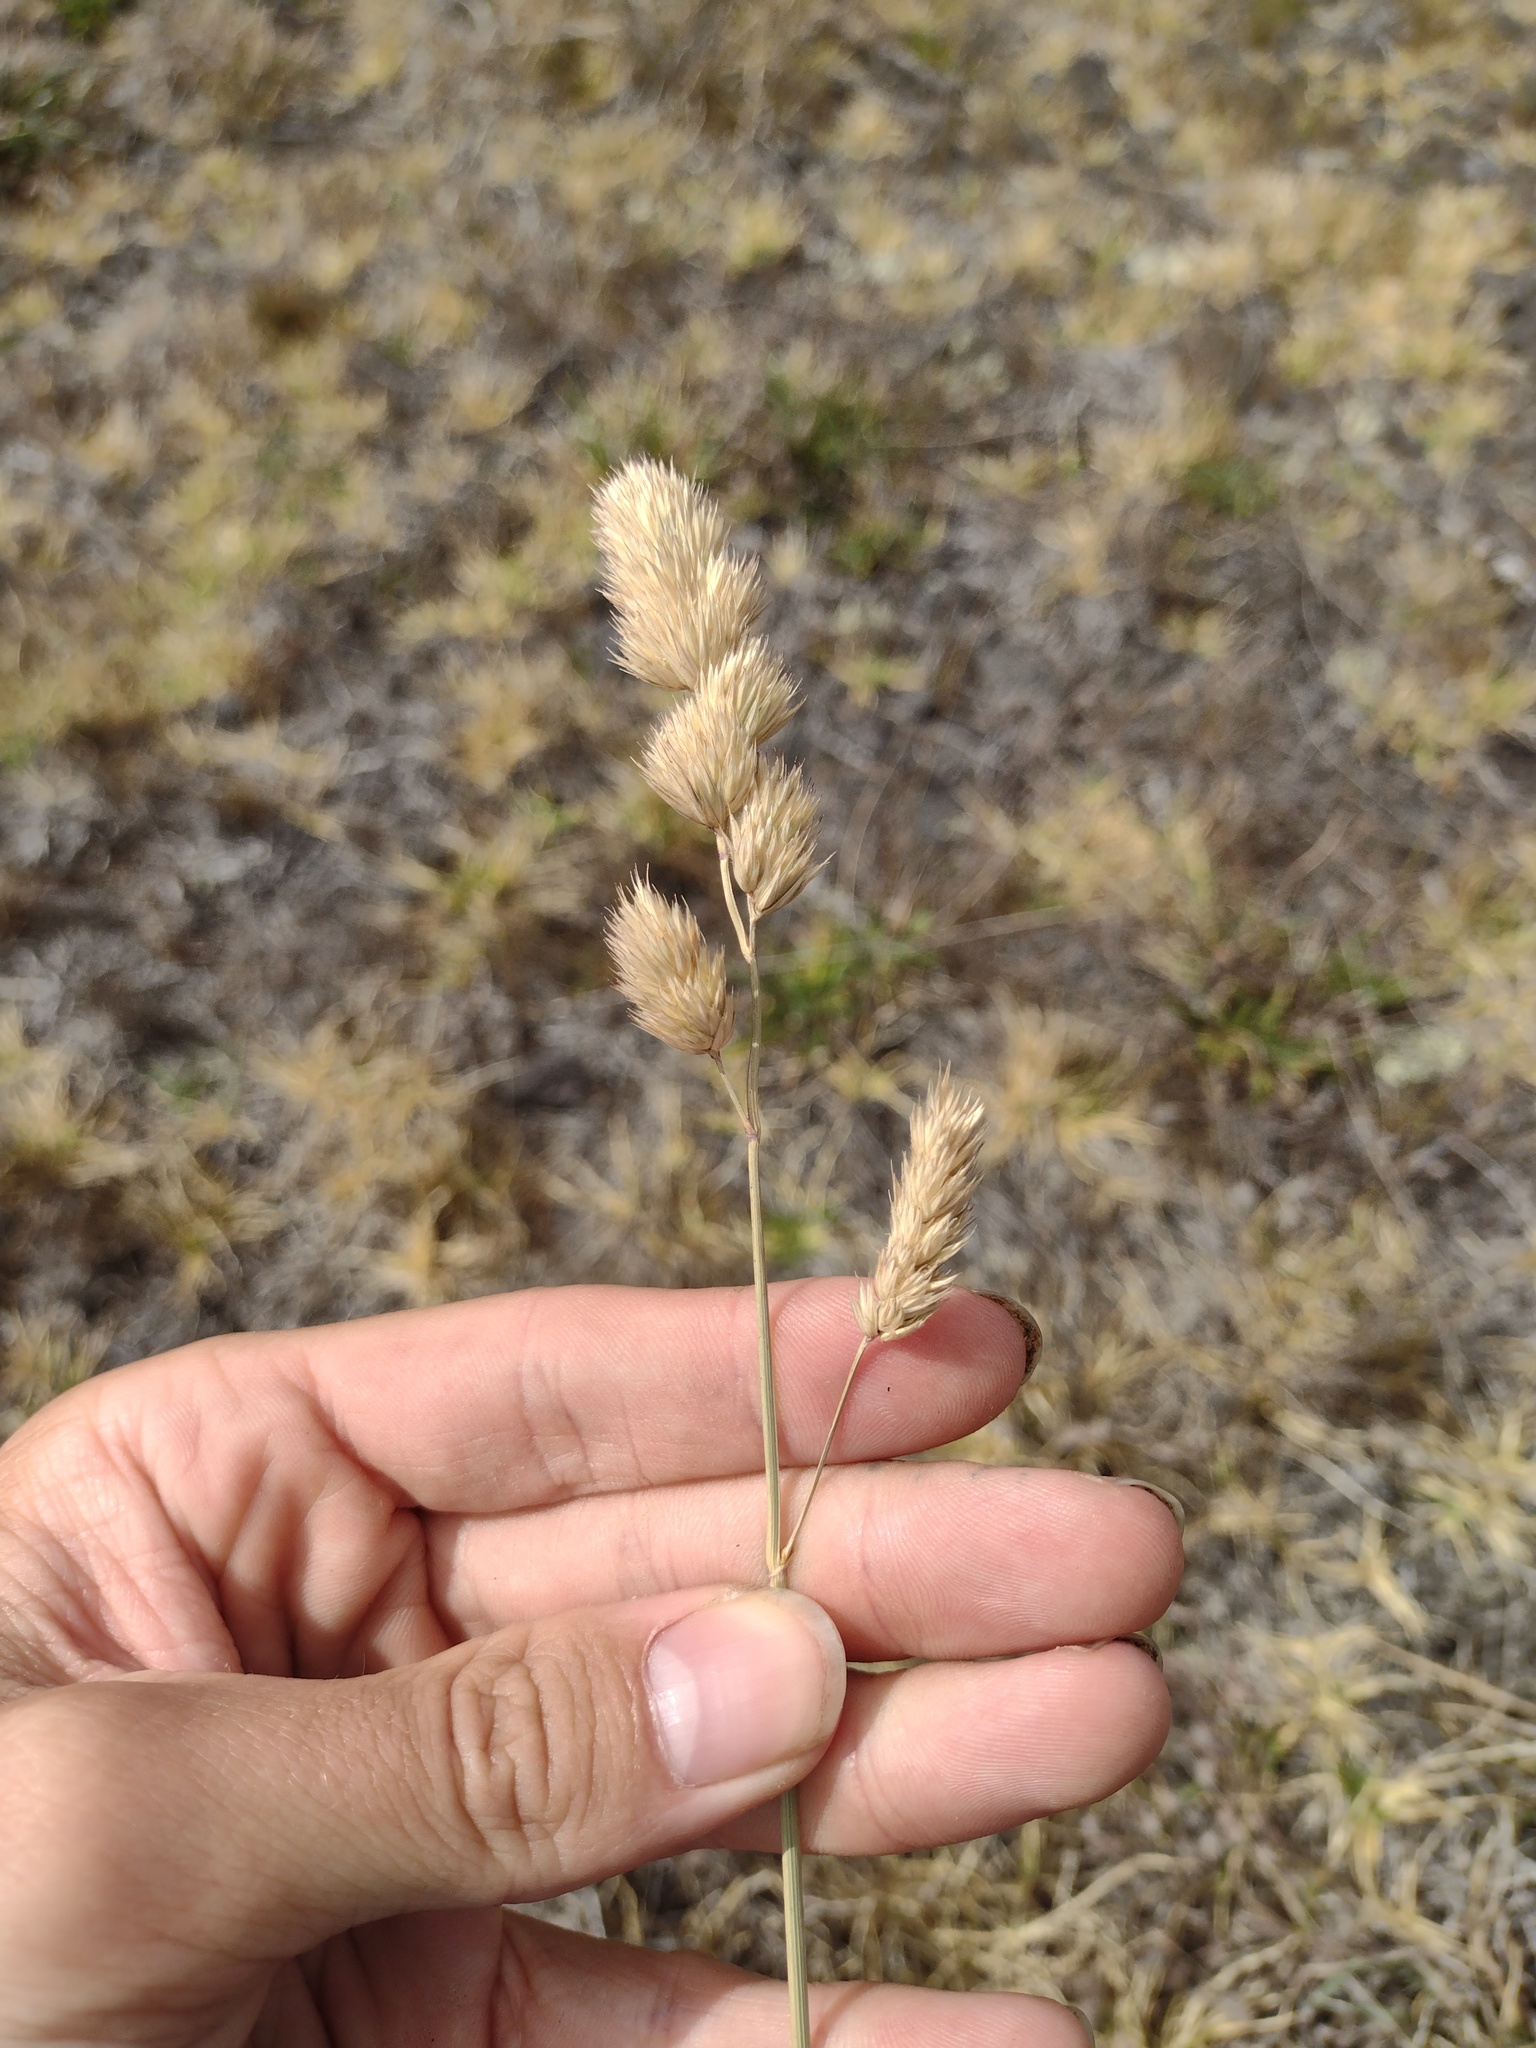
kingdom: Plantae
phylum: Tracheophyta
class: Liliopsida
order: Poales
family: Poaceae
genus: Dactylis
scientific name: Dactylis glomerata
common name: Orchardgrass
